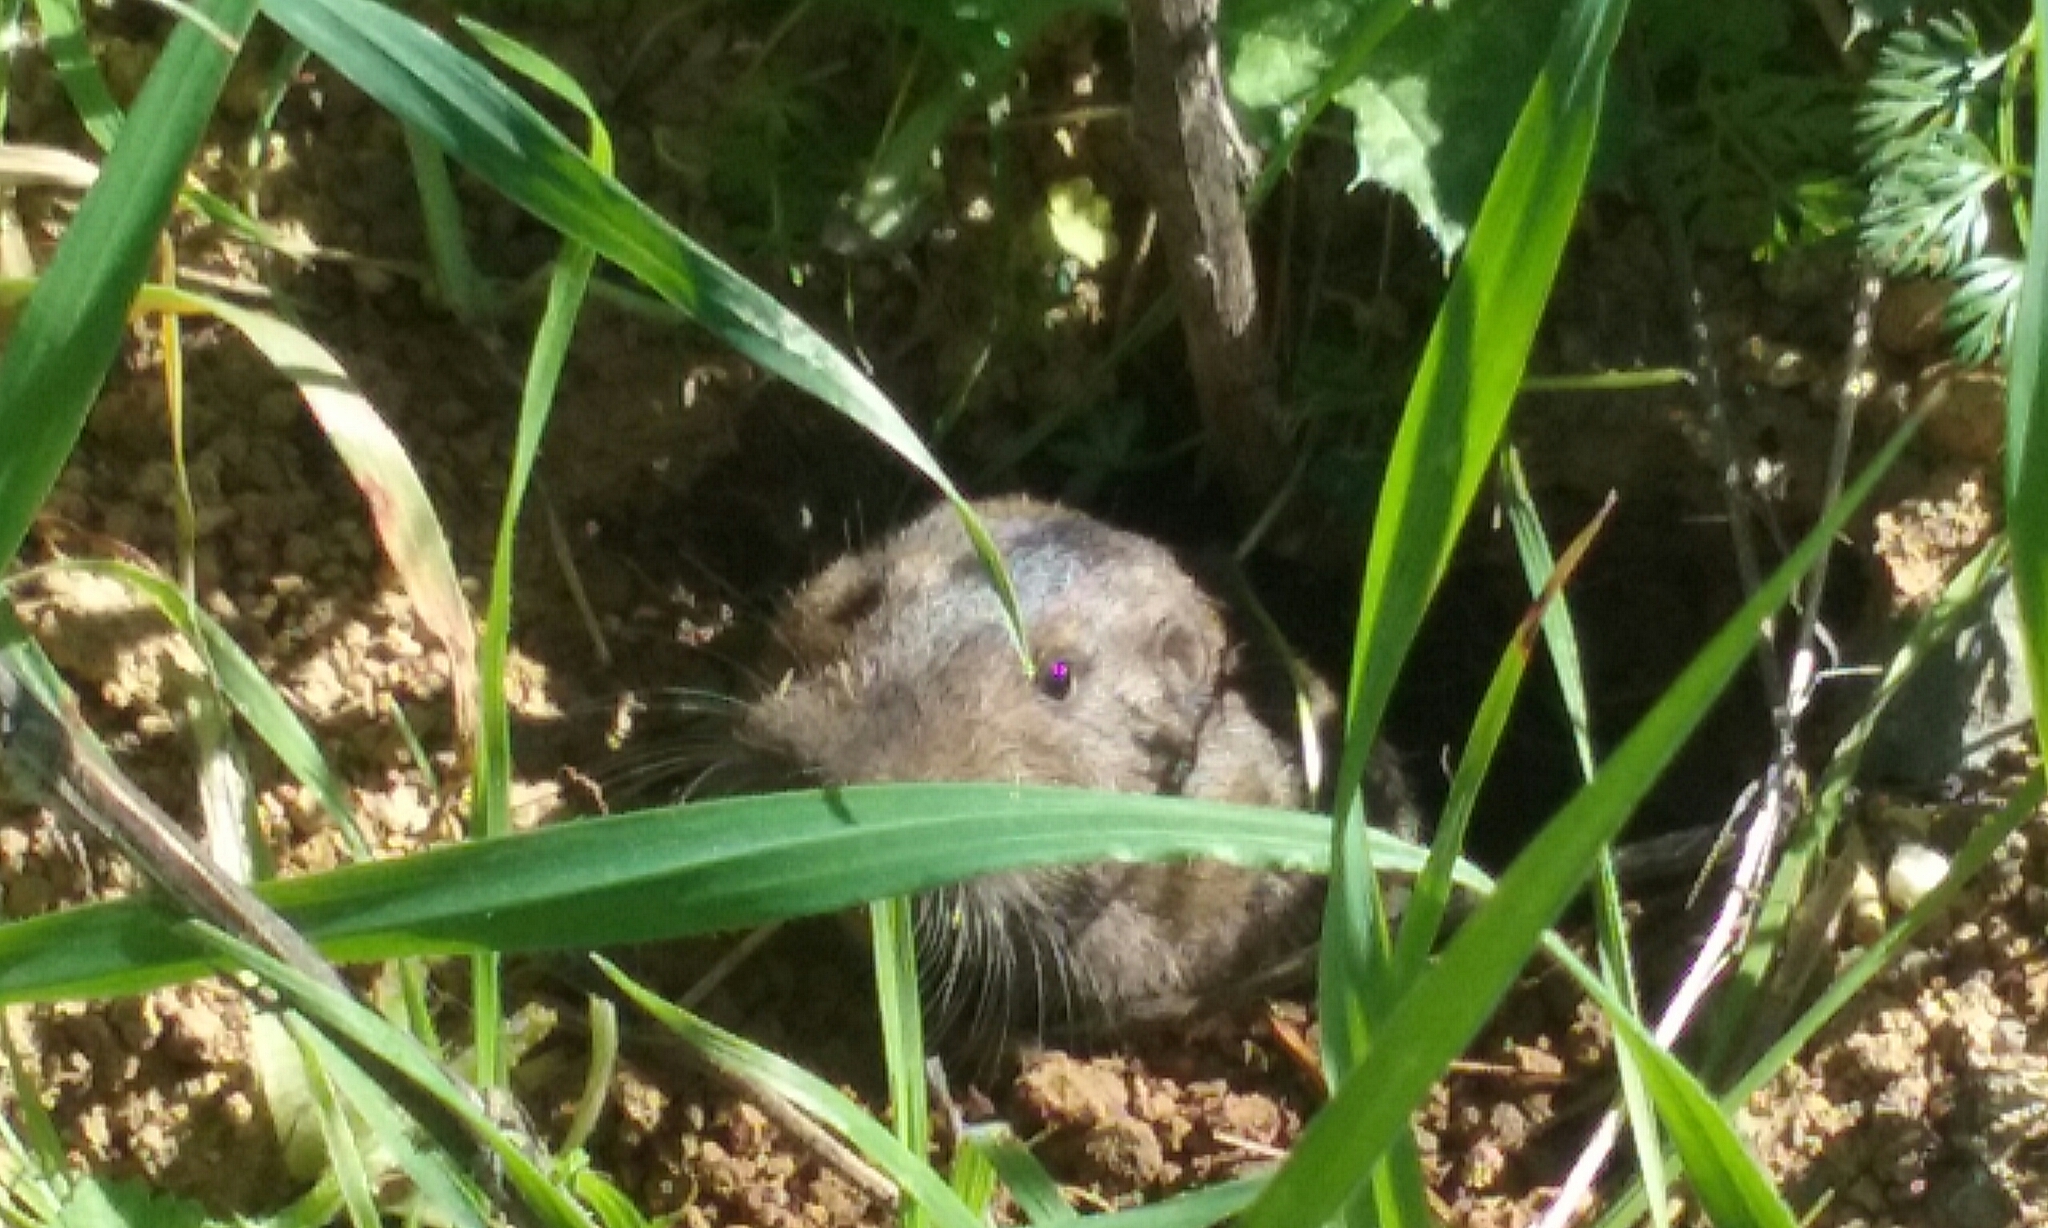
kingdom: Animalia
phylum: Chordata
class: Mammalia
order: Rodentia
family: Geomyidae
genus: Thomomys
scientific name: Thomomys bottae
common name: Botta's pocket gopher
